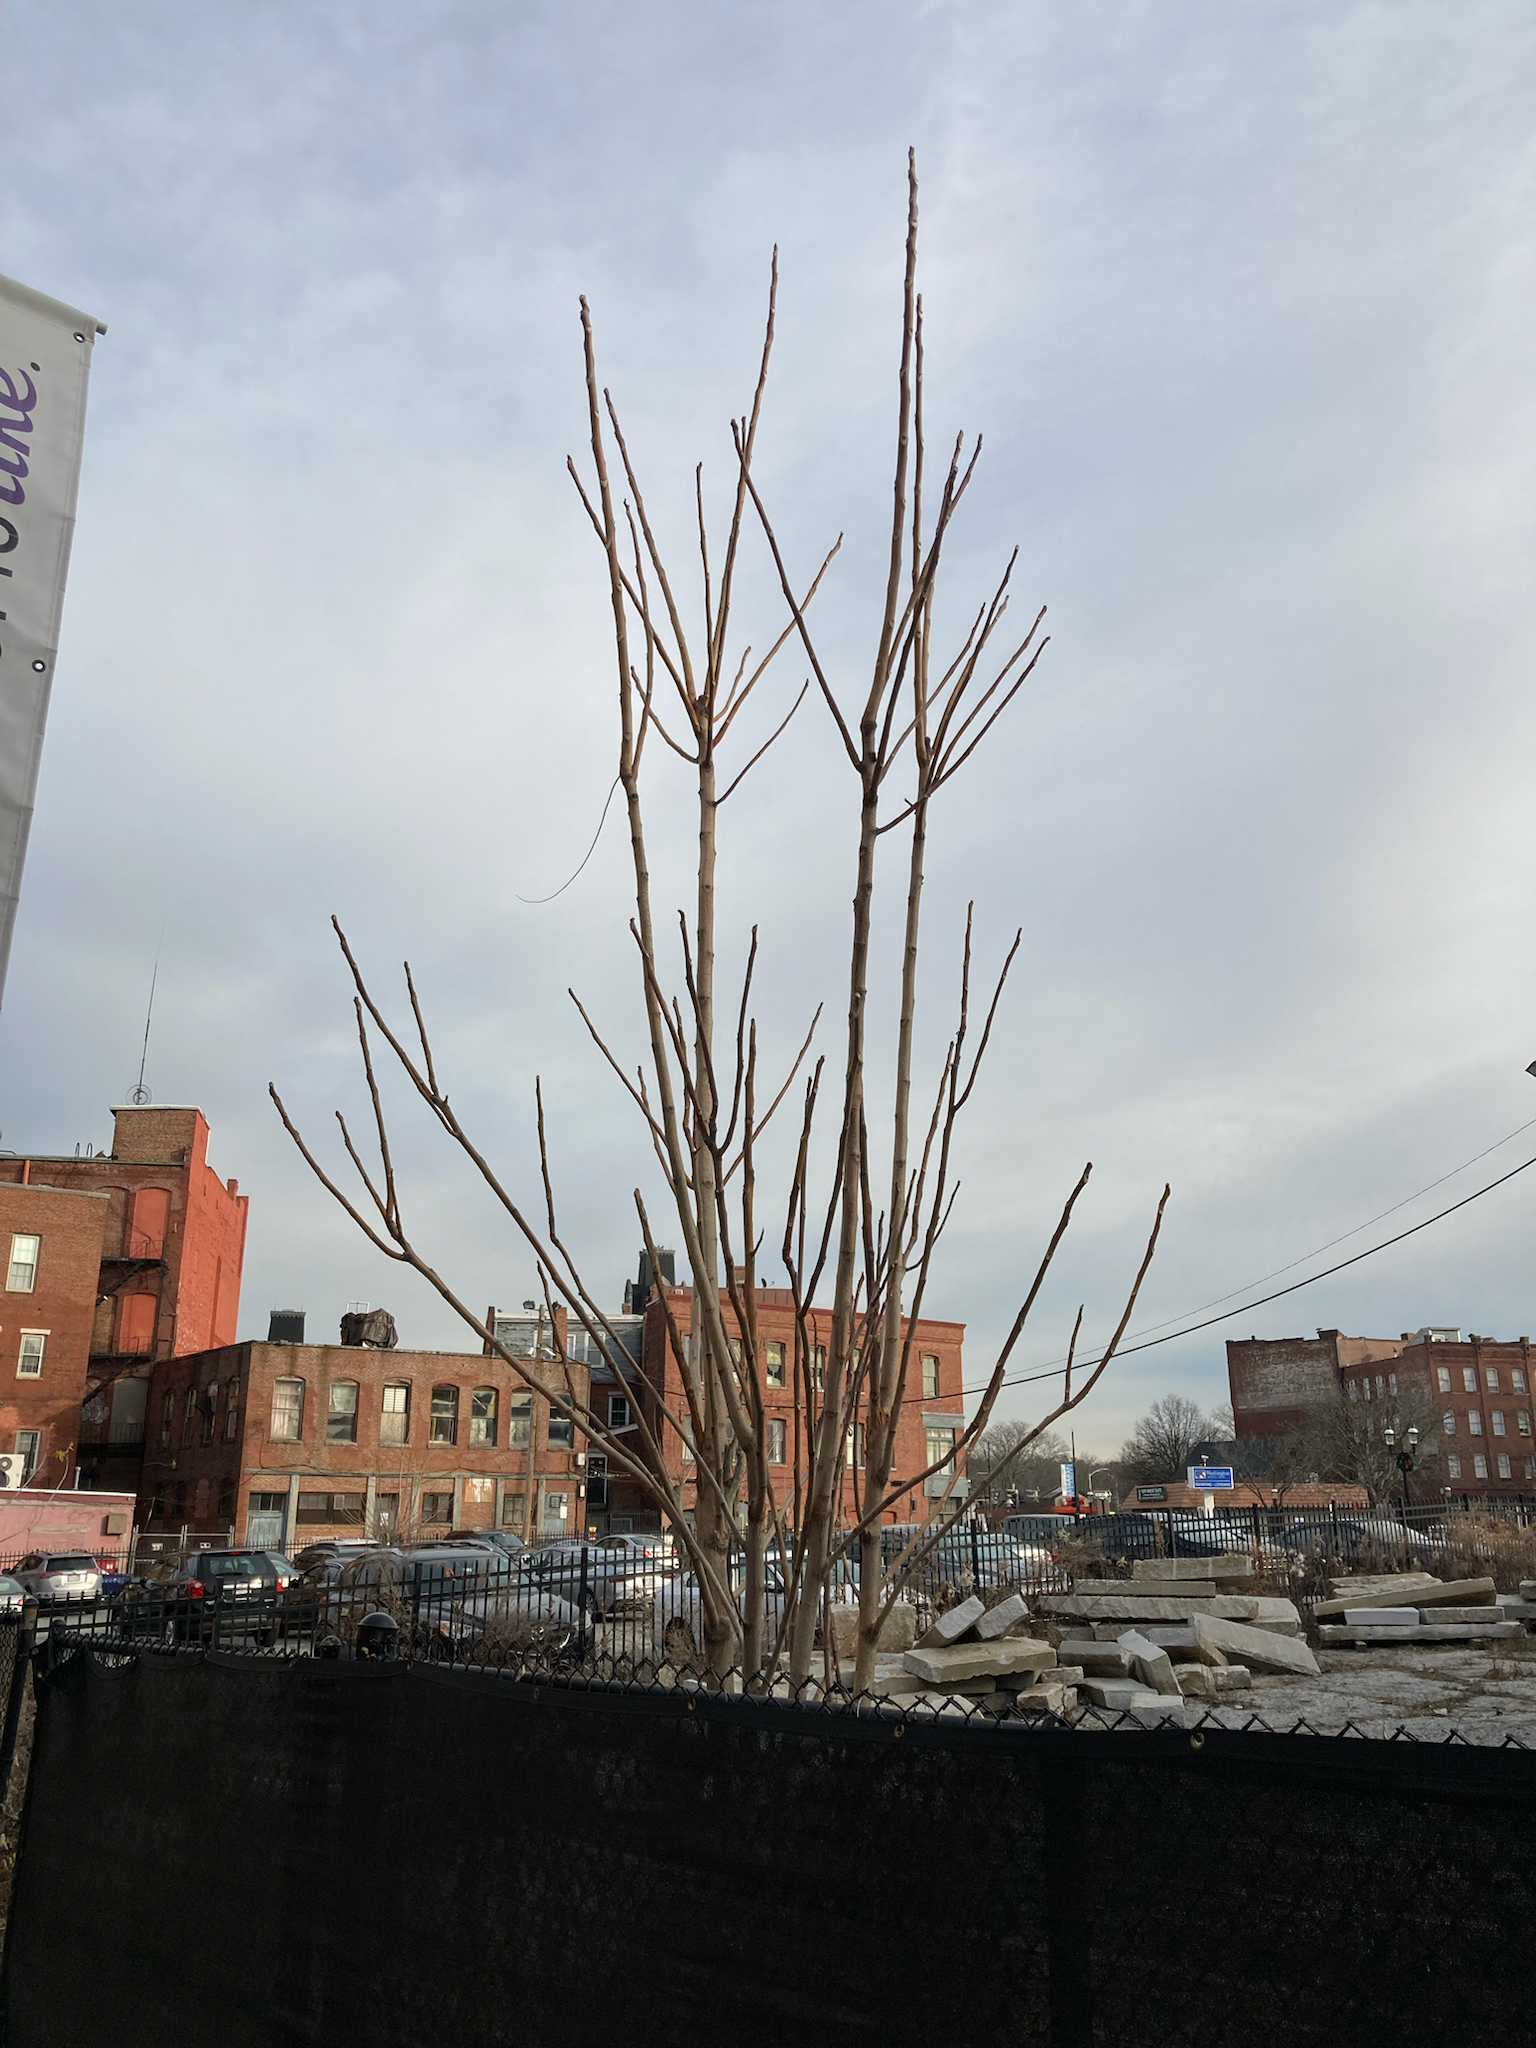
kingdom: Plantae
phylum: Tracheophyta
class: Magnoliopsida
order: Sapindales
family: Simaroubaceae
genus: Ailanthus
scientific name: Ailanthus altissima
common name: Tree-of-heaven
